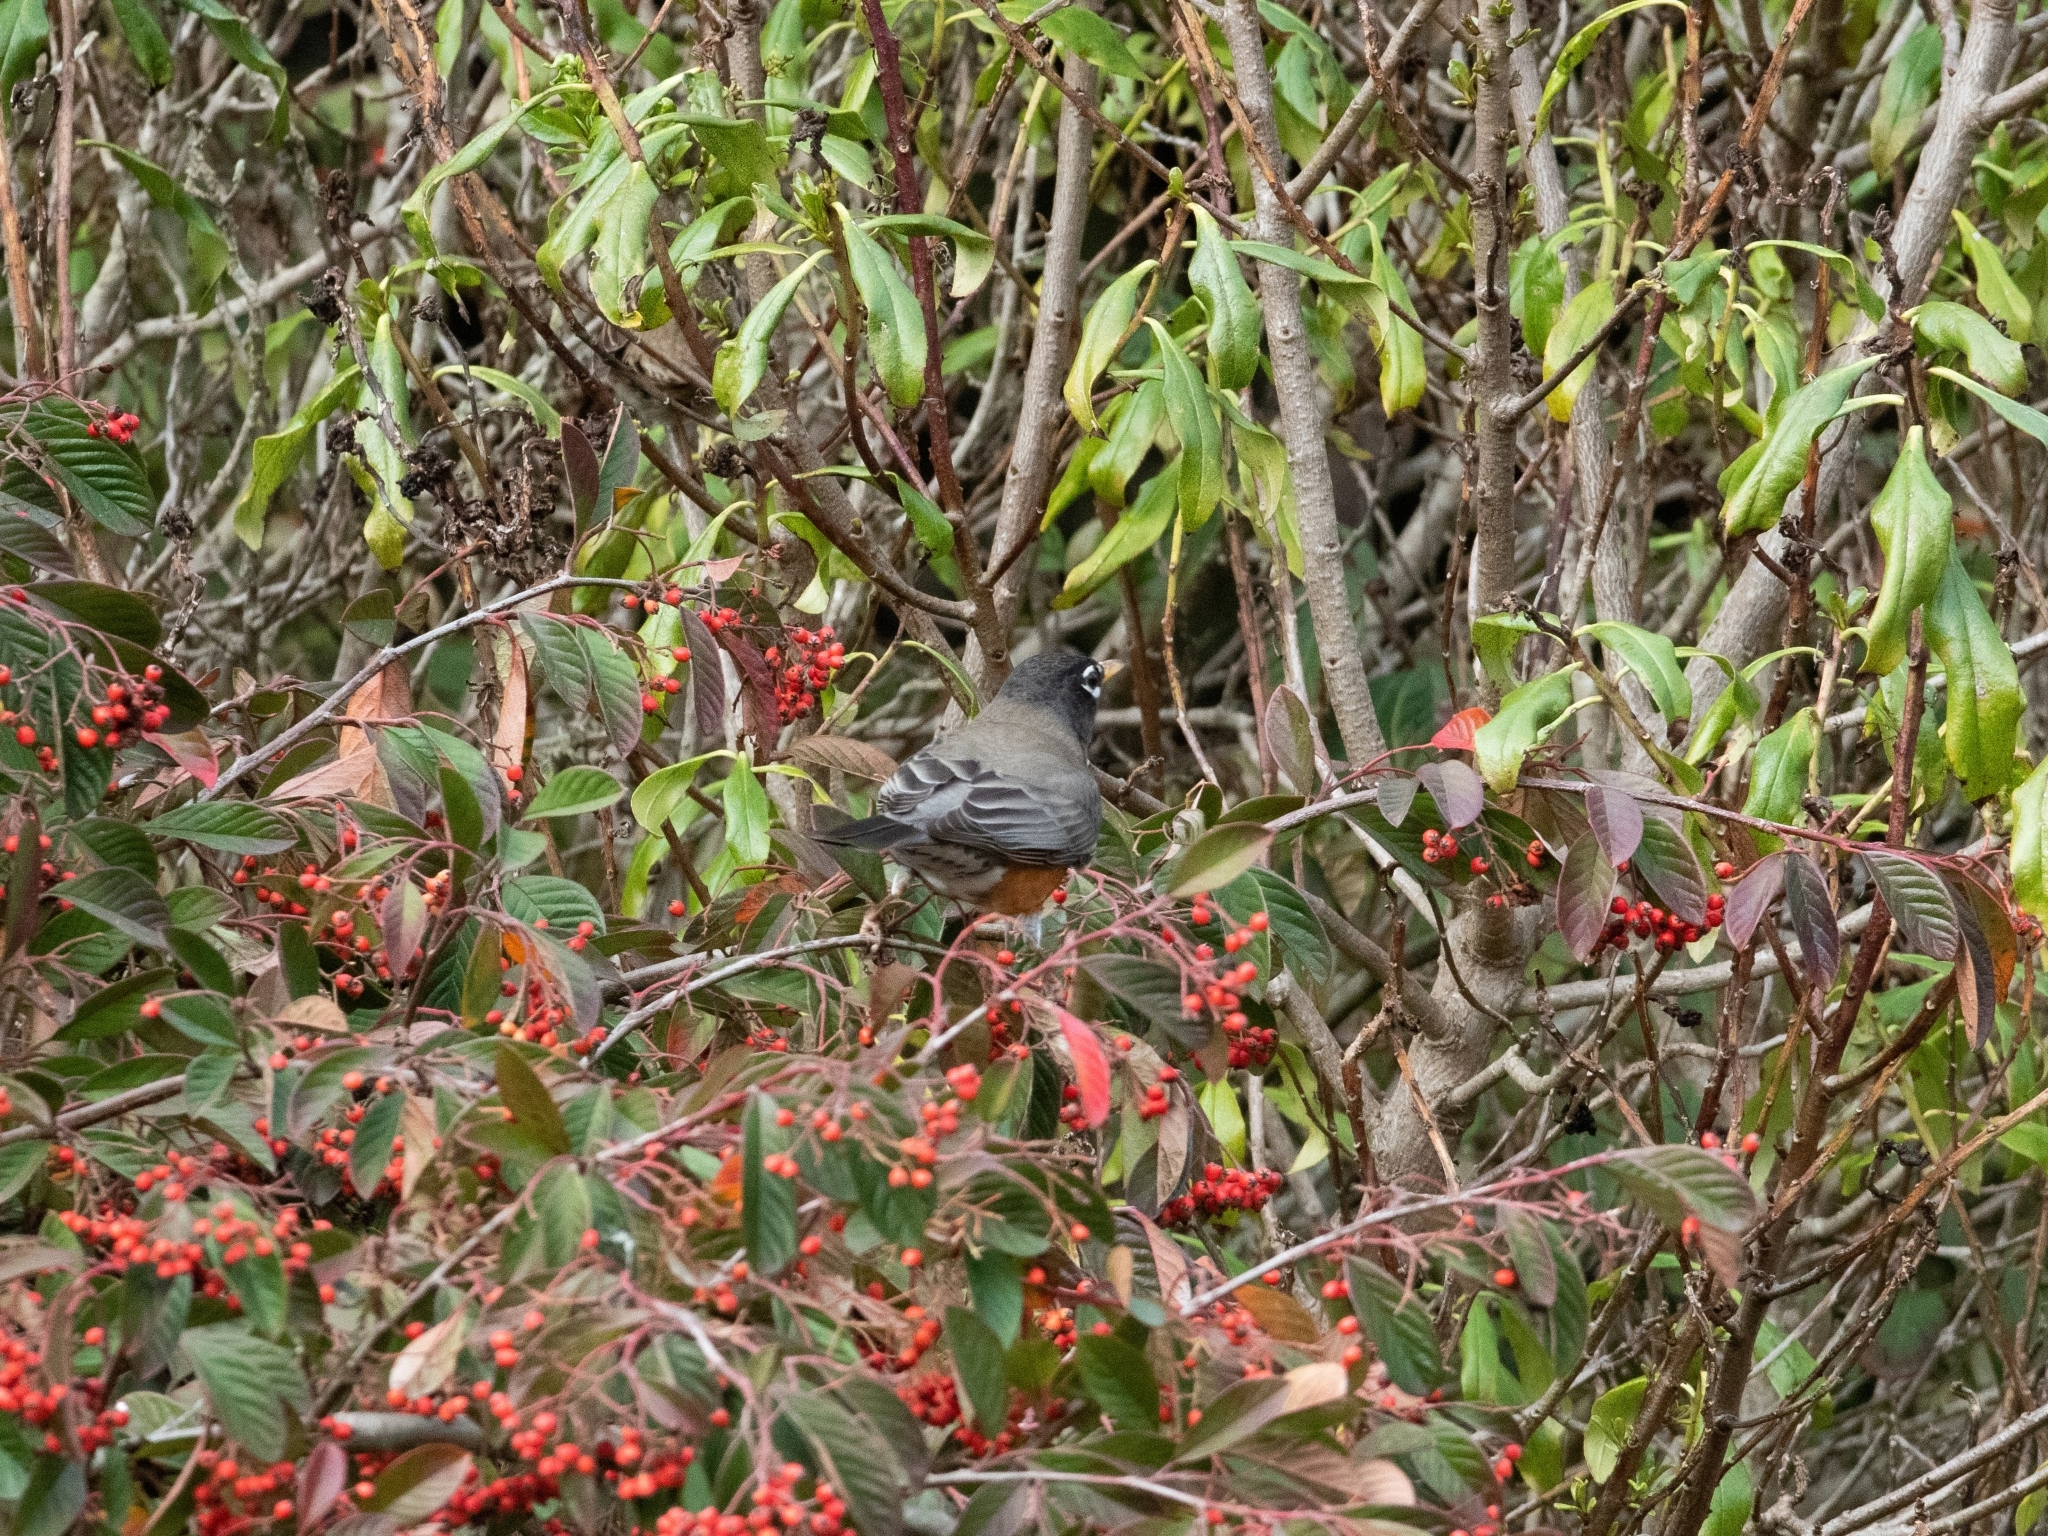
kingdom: Animalia
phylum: Chordata
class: Aves
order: Passeriformes
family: Turdidae
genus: Turdus
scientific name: Turdus migratorius
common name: American robin
